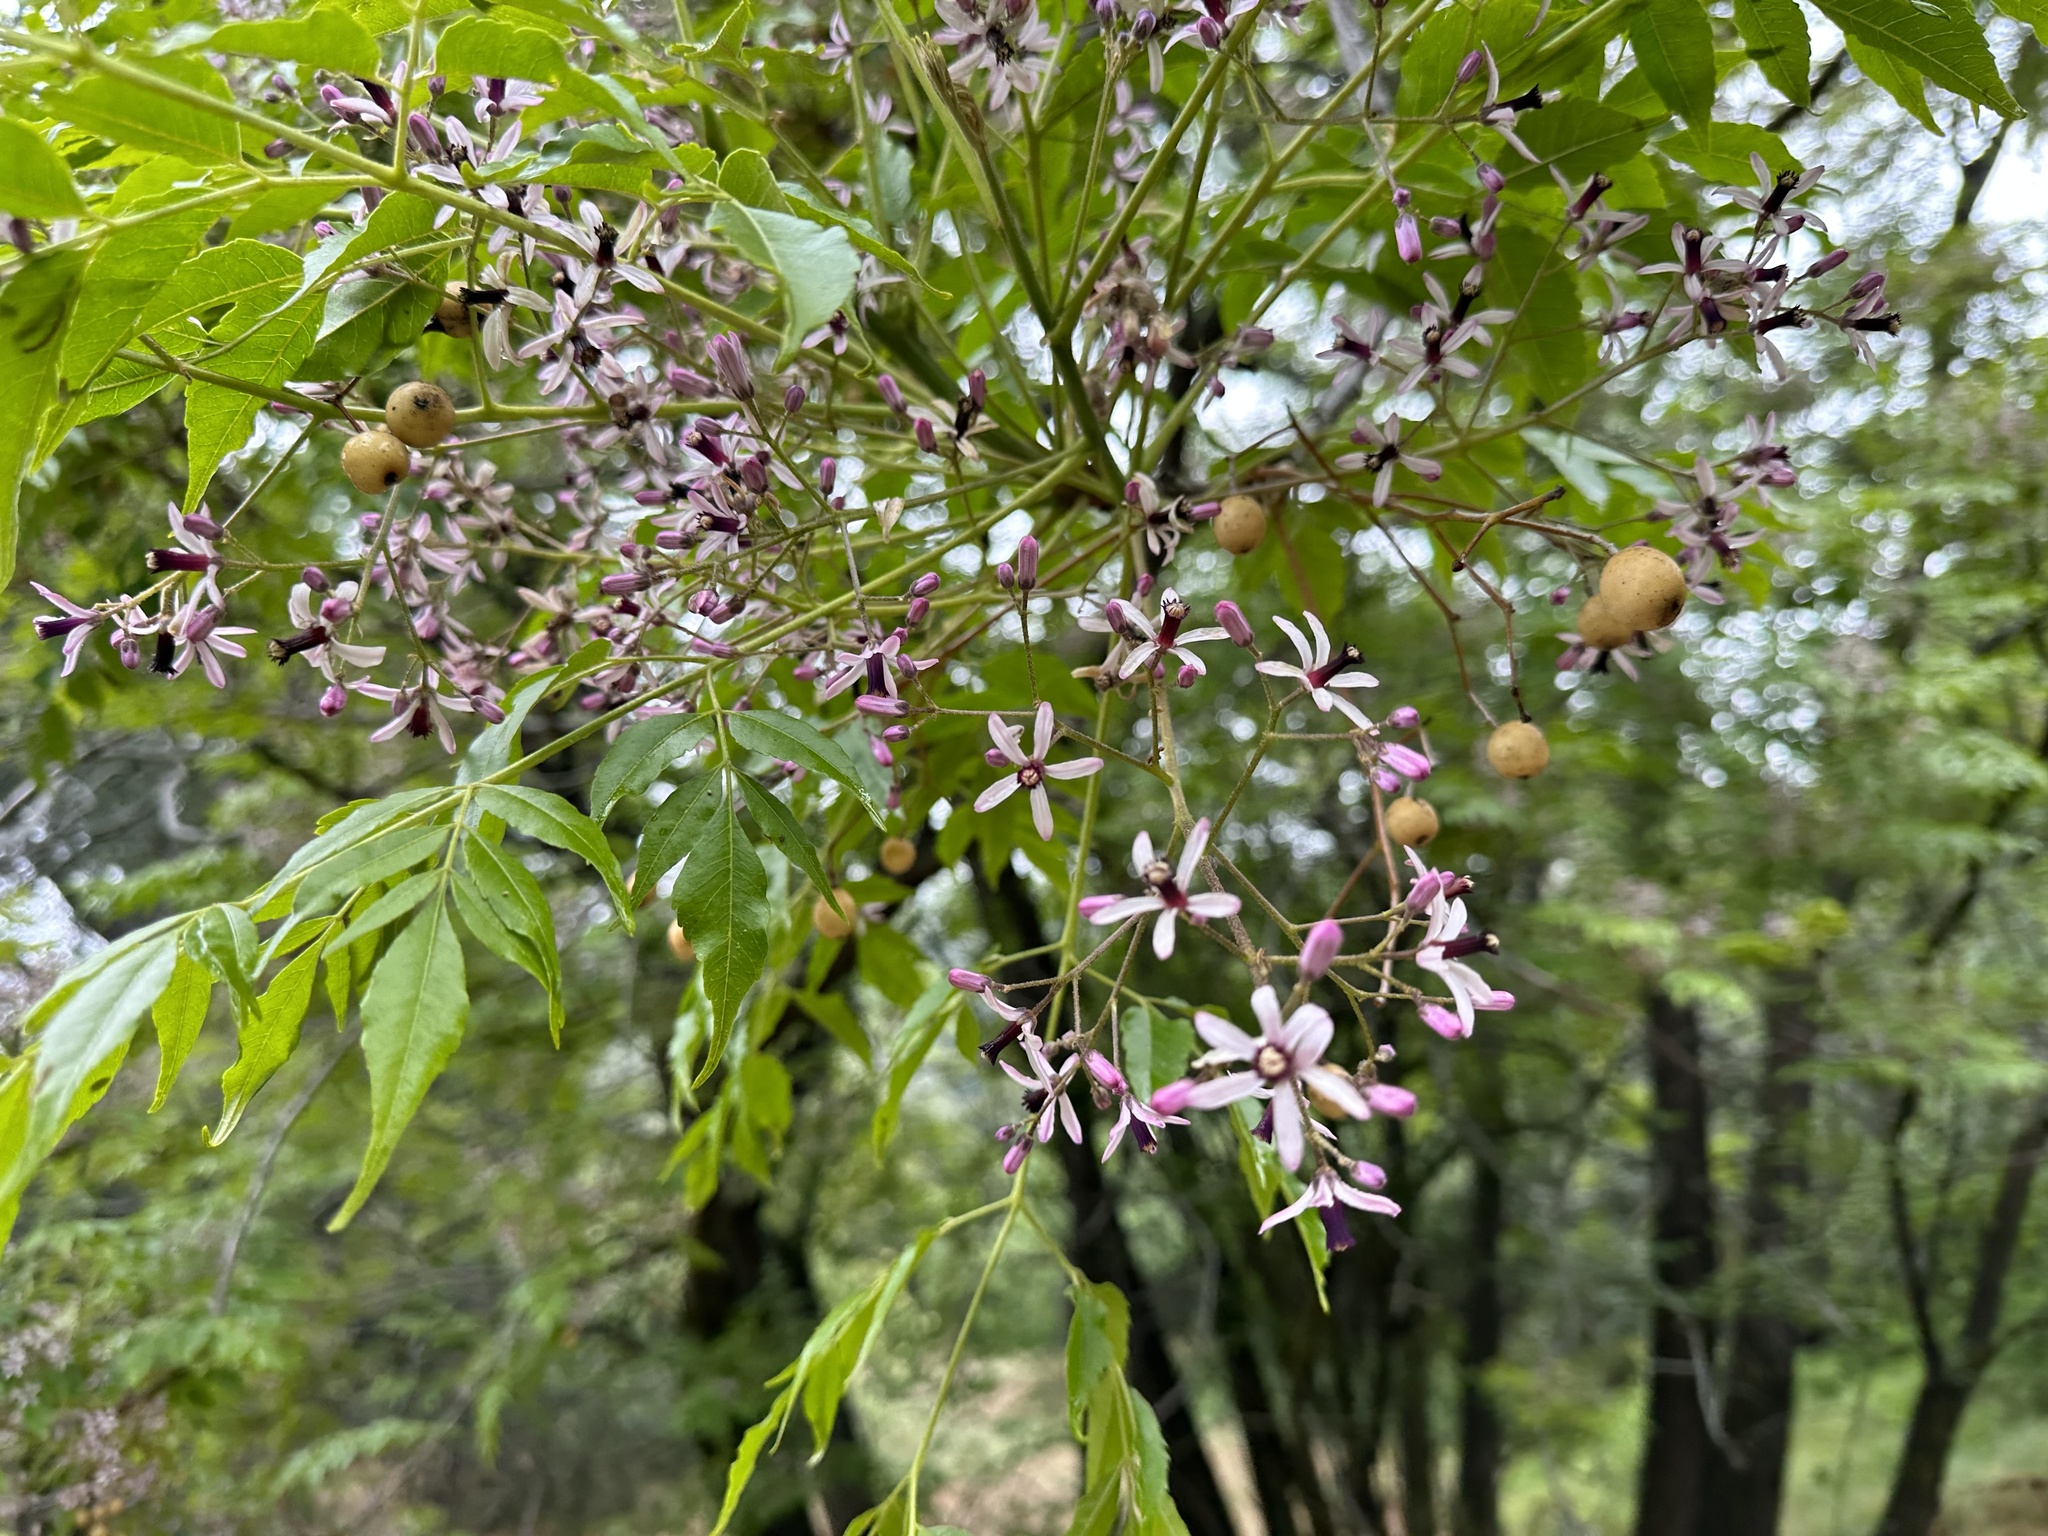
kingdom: Plantae
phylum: Tracheophyta
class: Magnoliopsida
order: Sapindales
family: Meliaceae
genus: Melia
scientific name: Melia azedarach
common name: Chinaberrytree
